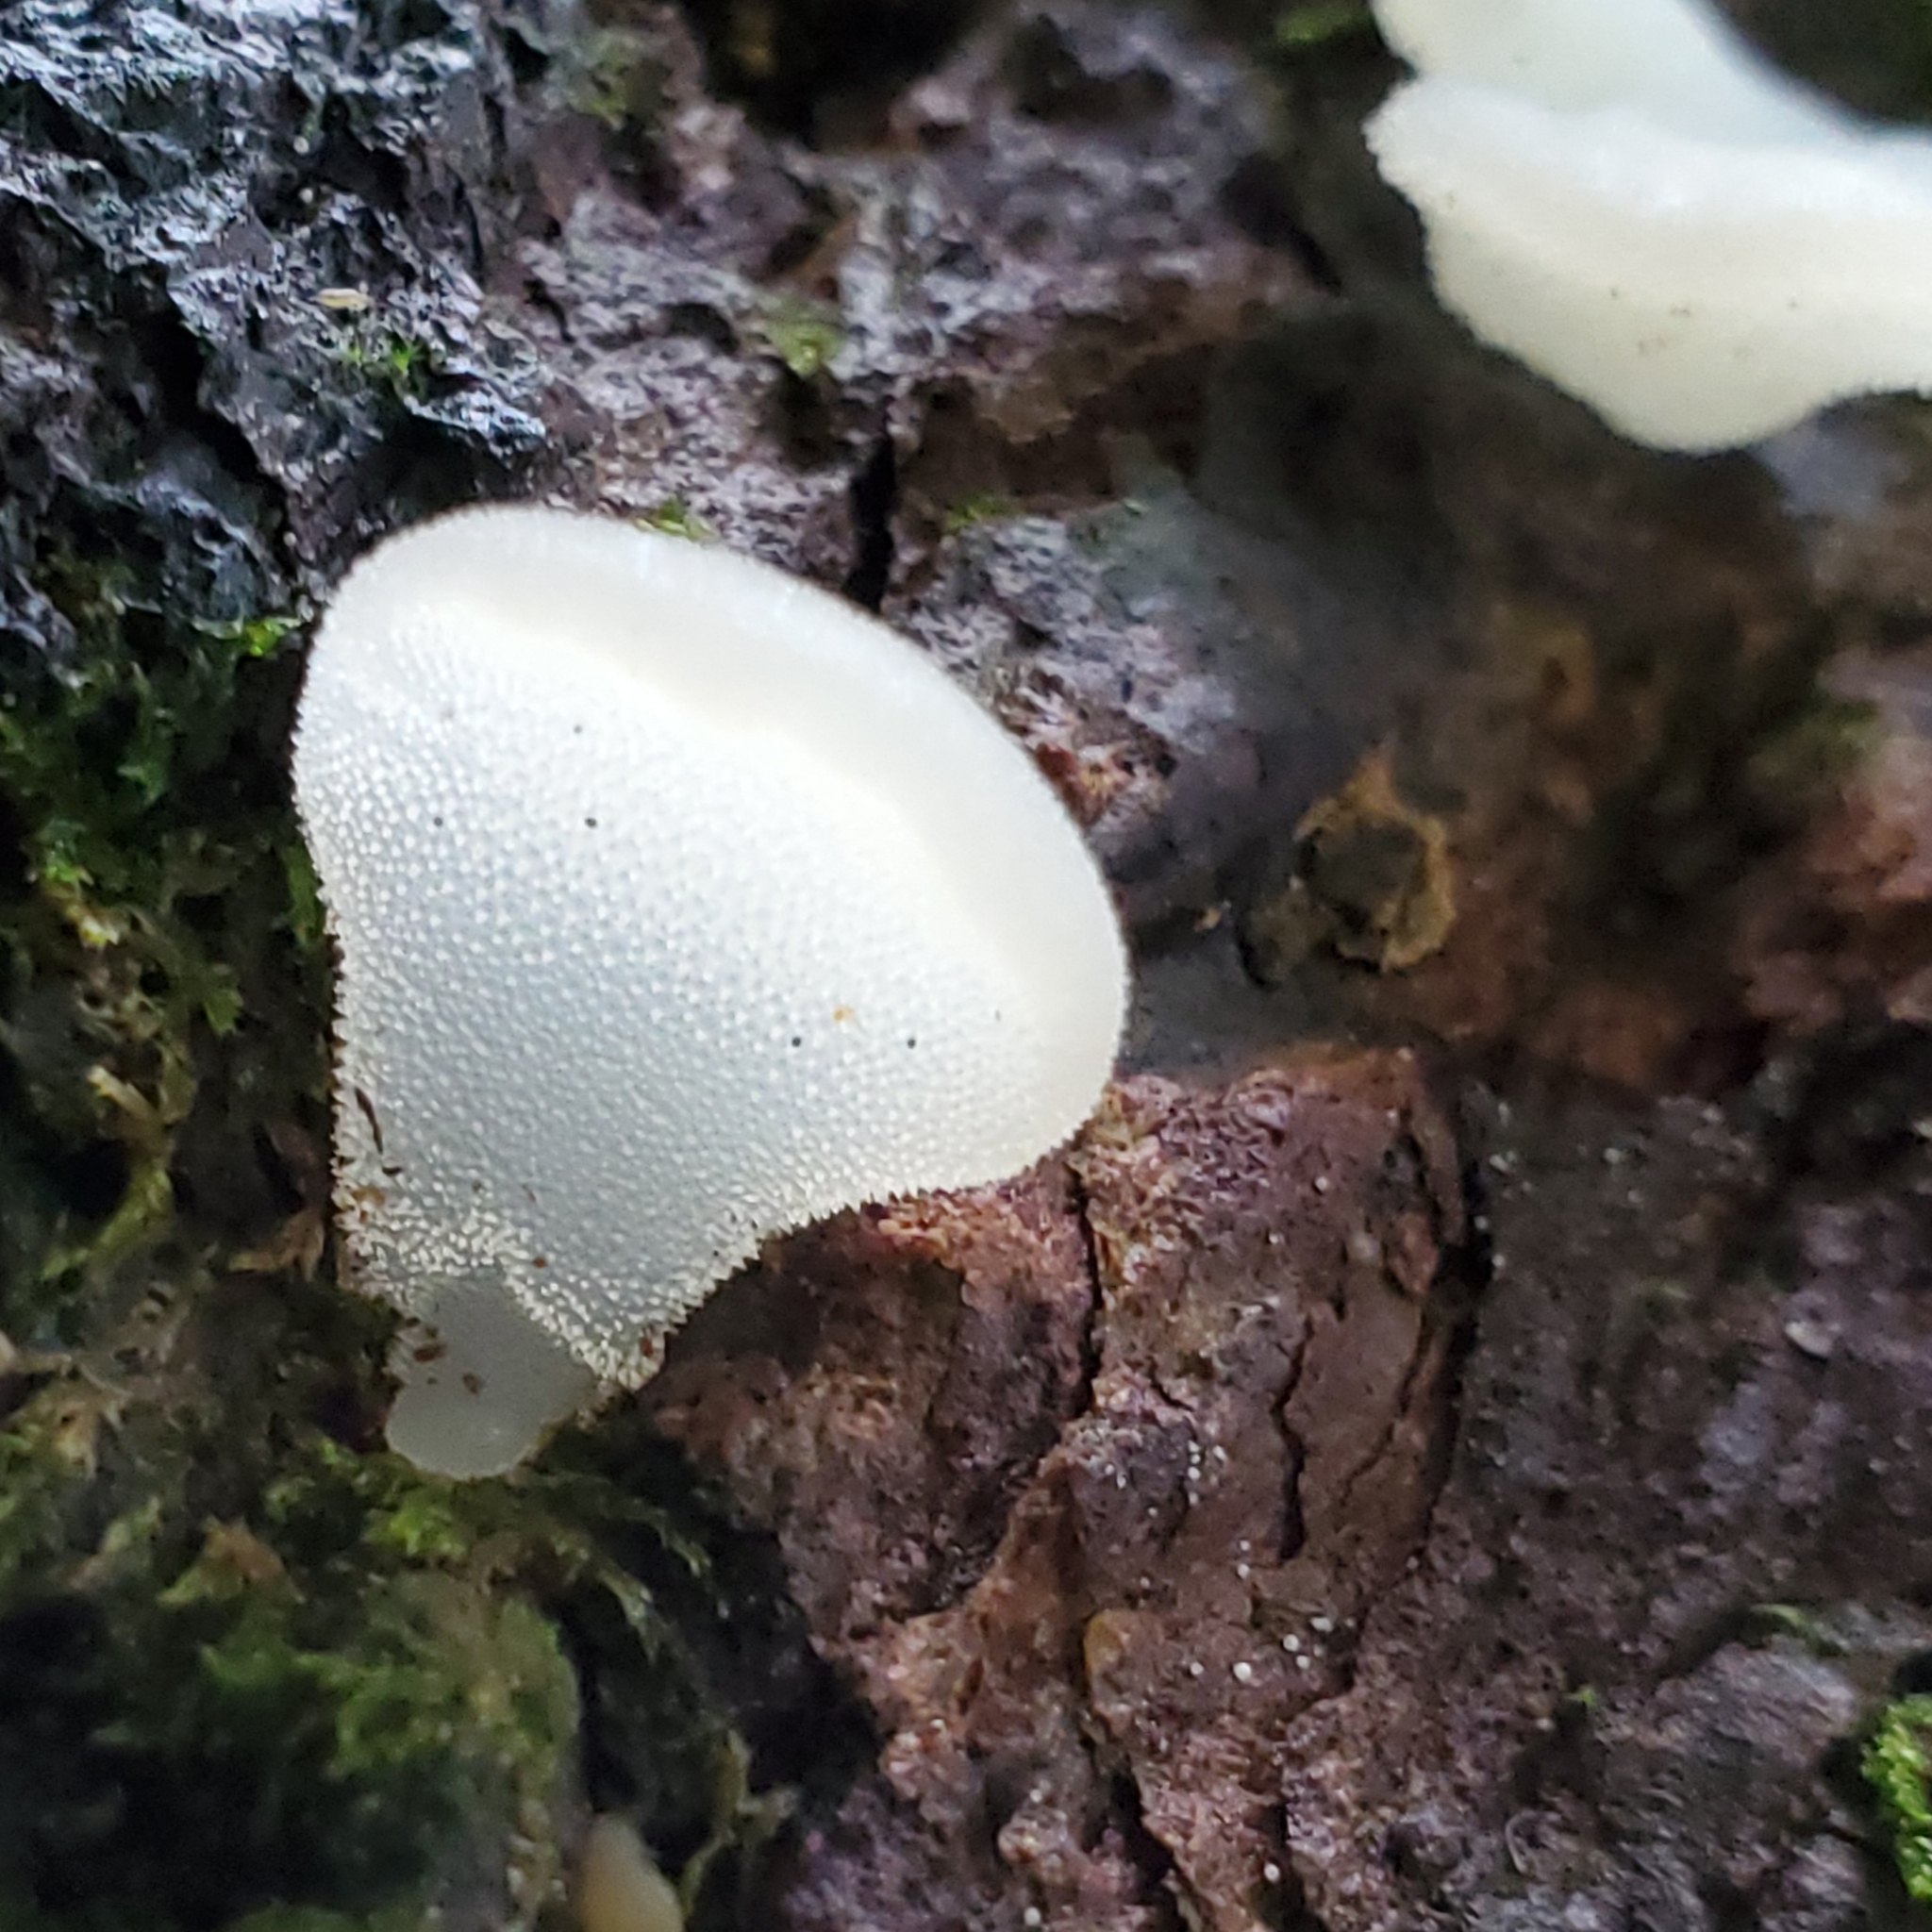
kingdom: Fungi
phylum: Basidiomycota
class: Agaricomycetes
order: Auriculariales
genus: Pseudohydnum
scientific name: Pseudohydnum gelatinosum
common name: Jelly tongue
